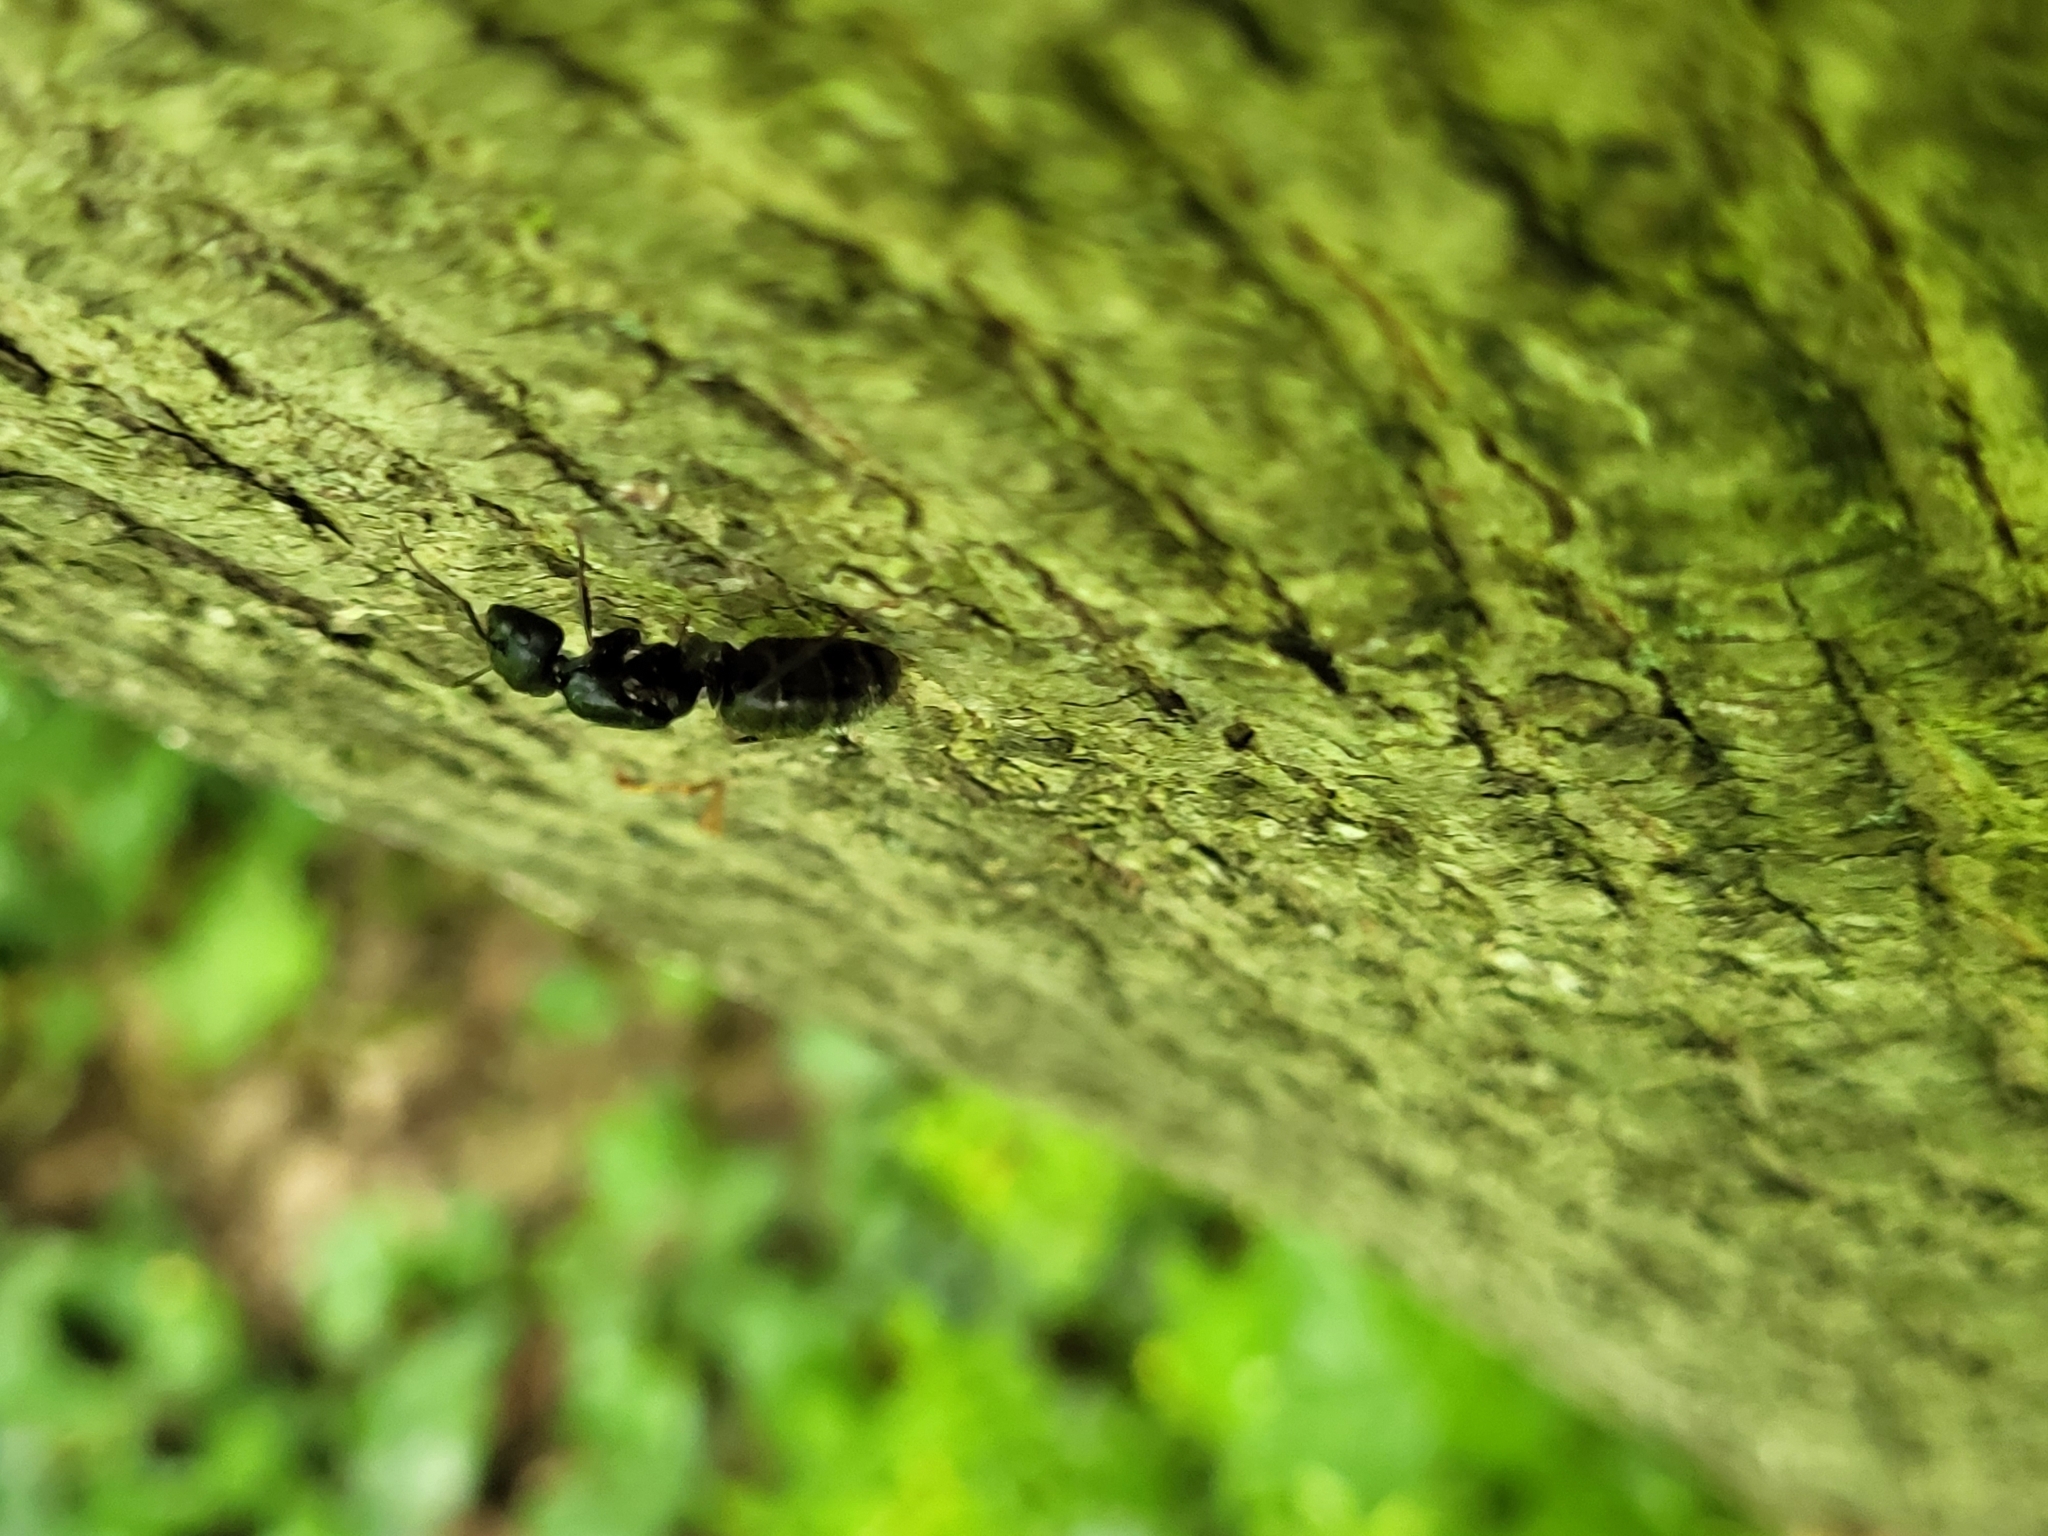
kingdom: Animalia
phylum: Arthropoda
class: Insecta
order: Hymenoptera
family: Formicidae
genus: Camponotus
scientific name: Camponotus pennsylvanicus
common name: Black carpenter ant
